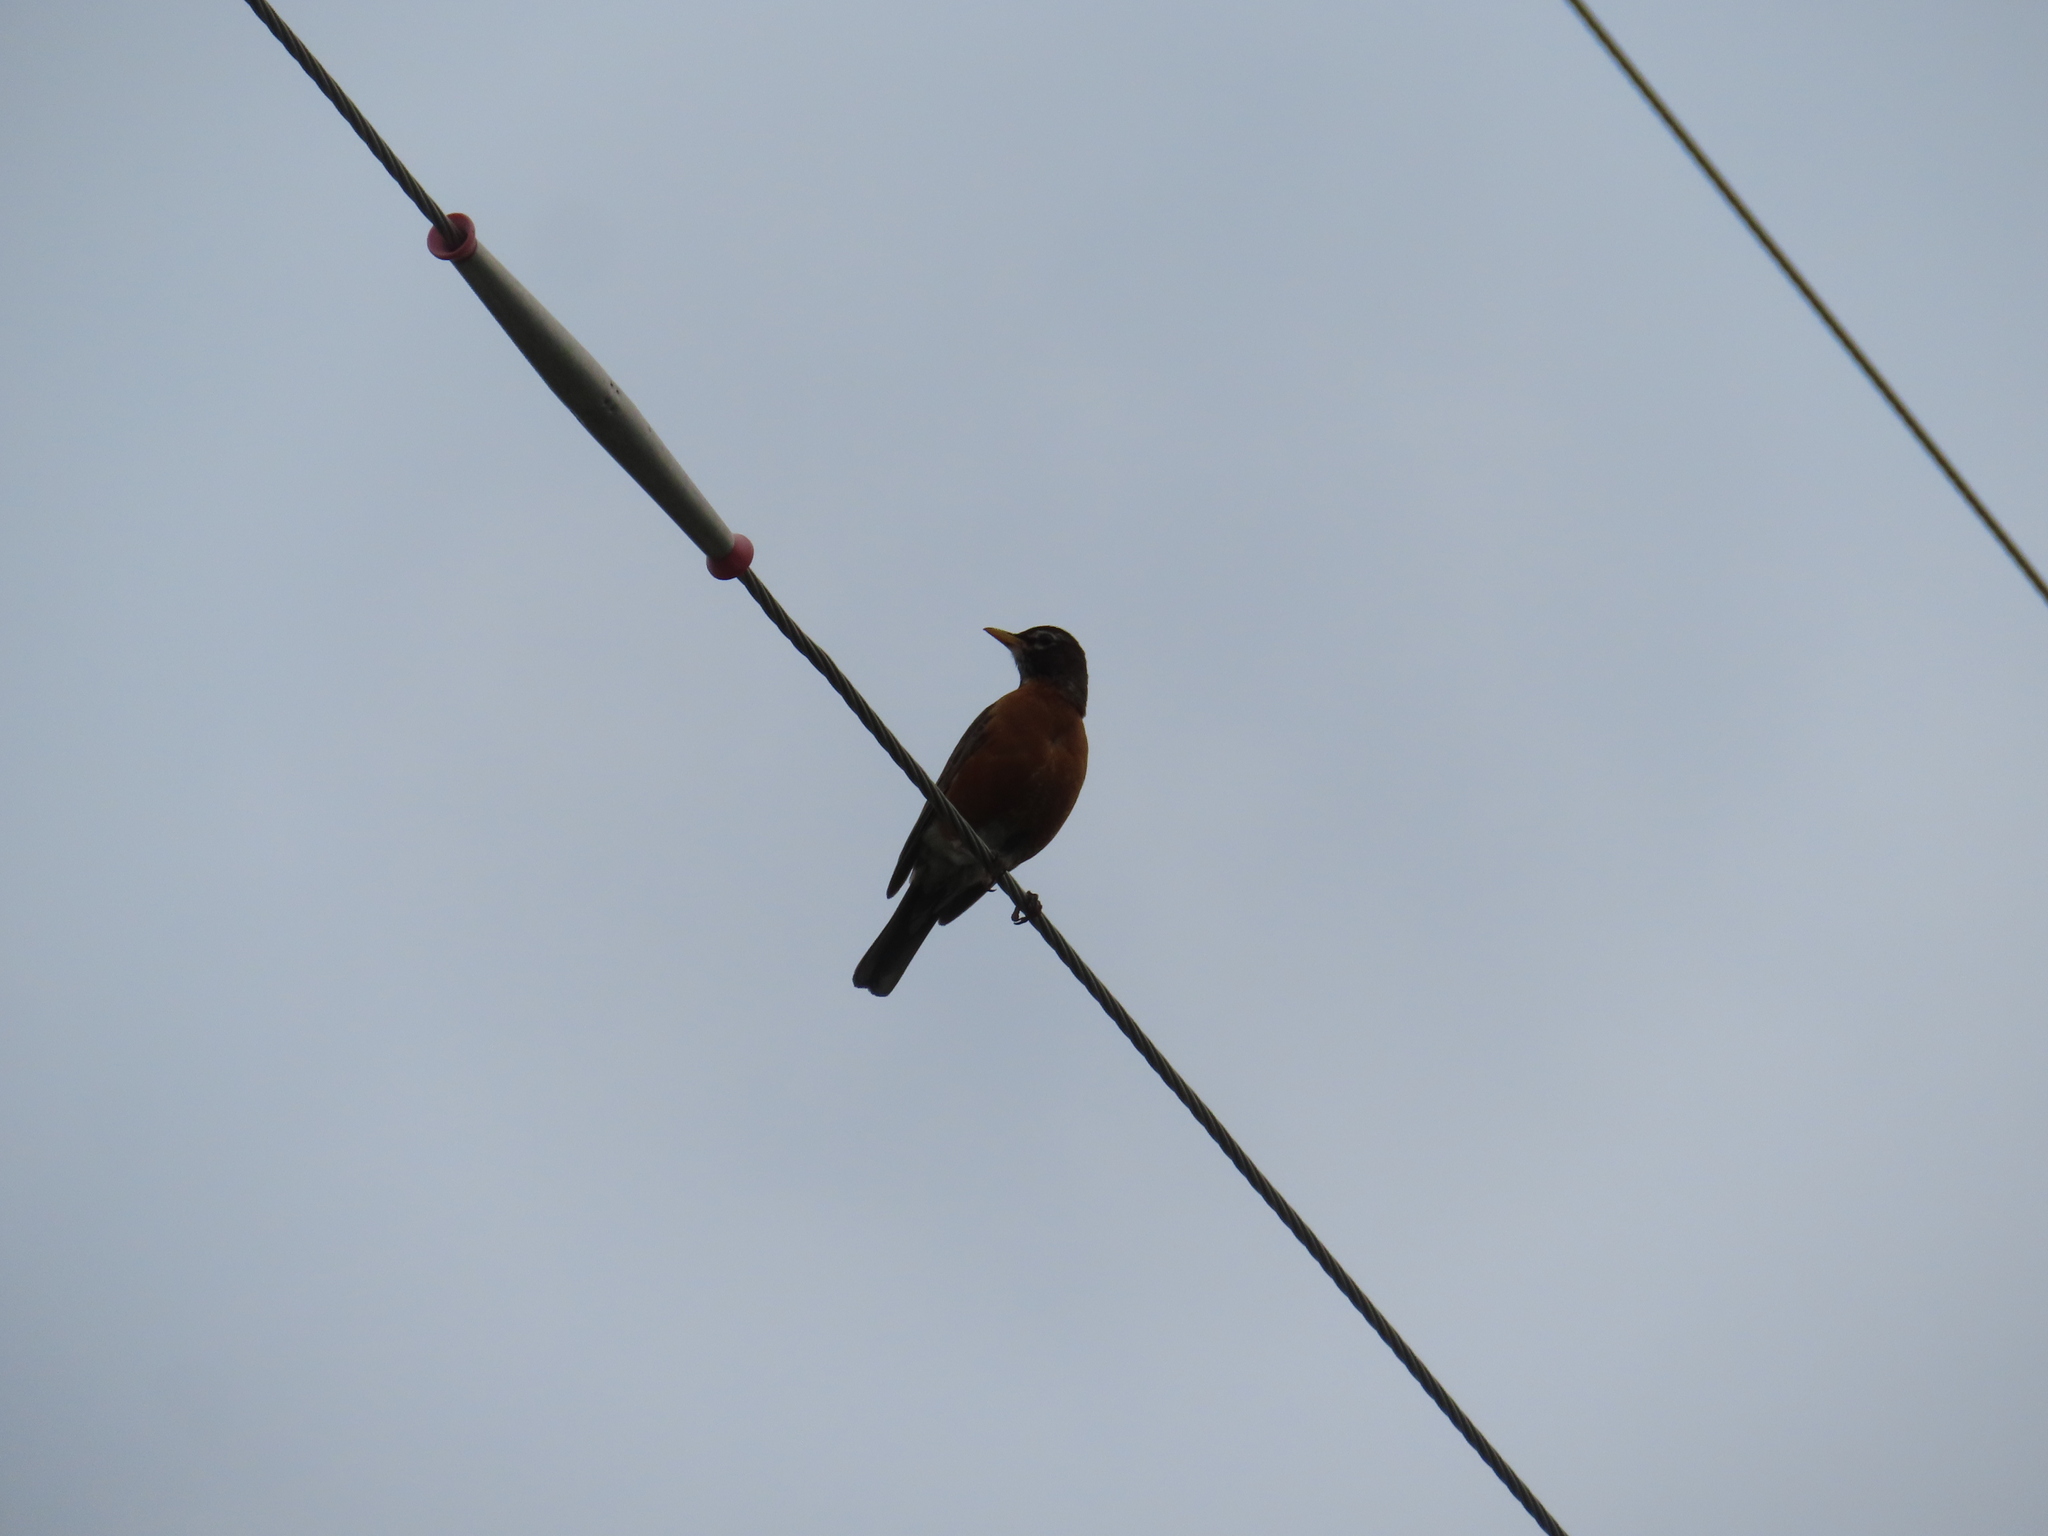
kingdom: Animalia
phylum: Chordata
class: Aves
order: Passeriformes
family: Turdidae
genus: Turdus
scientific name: Turdus migratorius
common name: American robin
